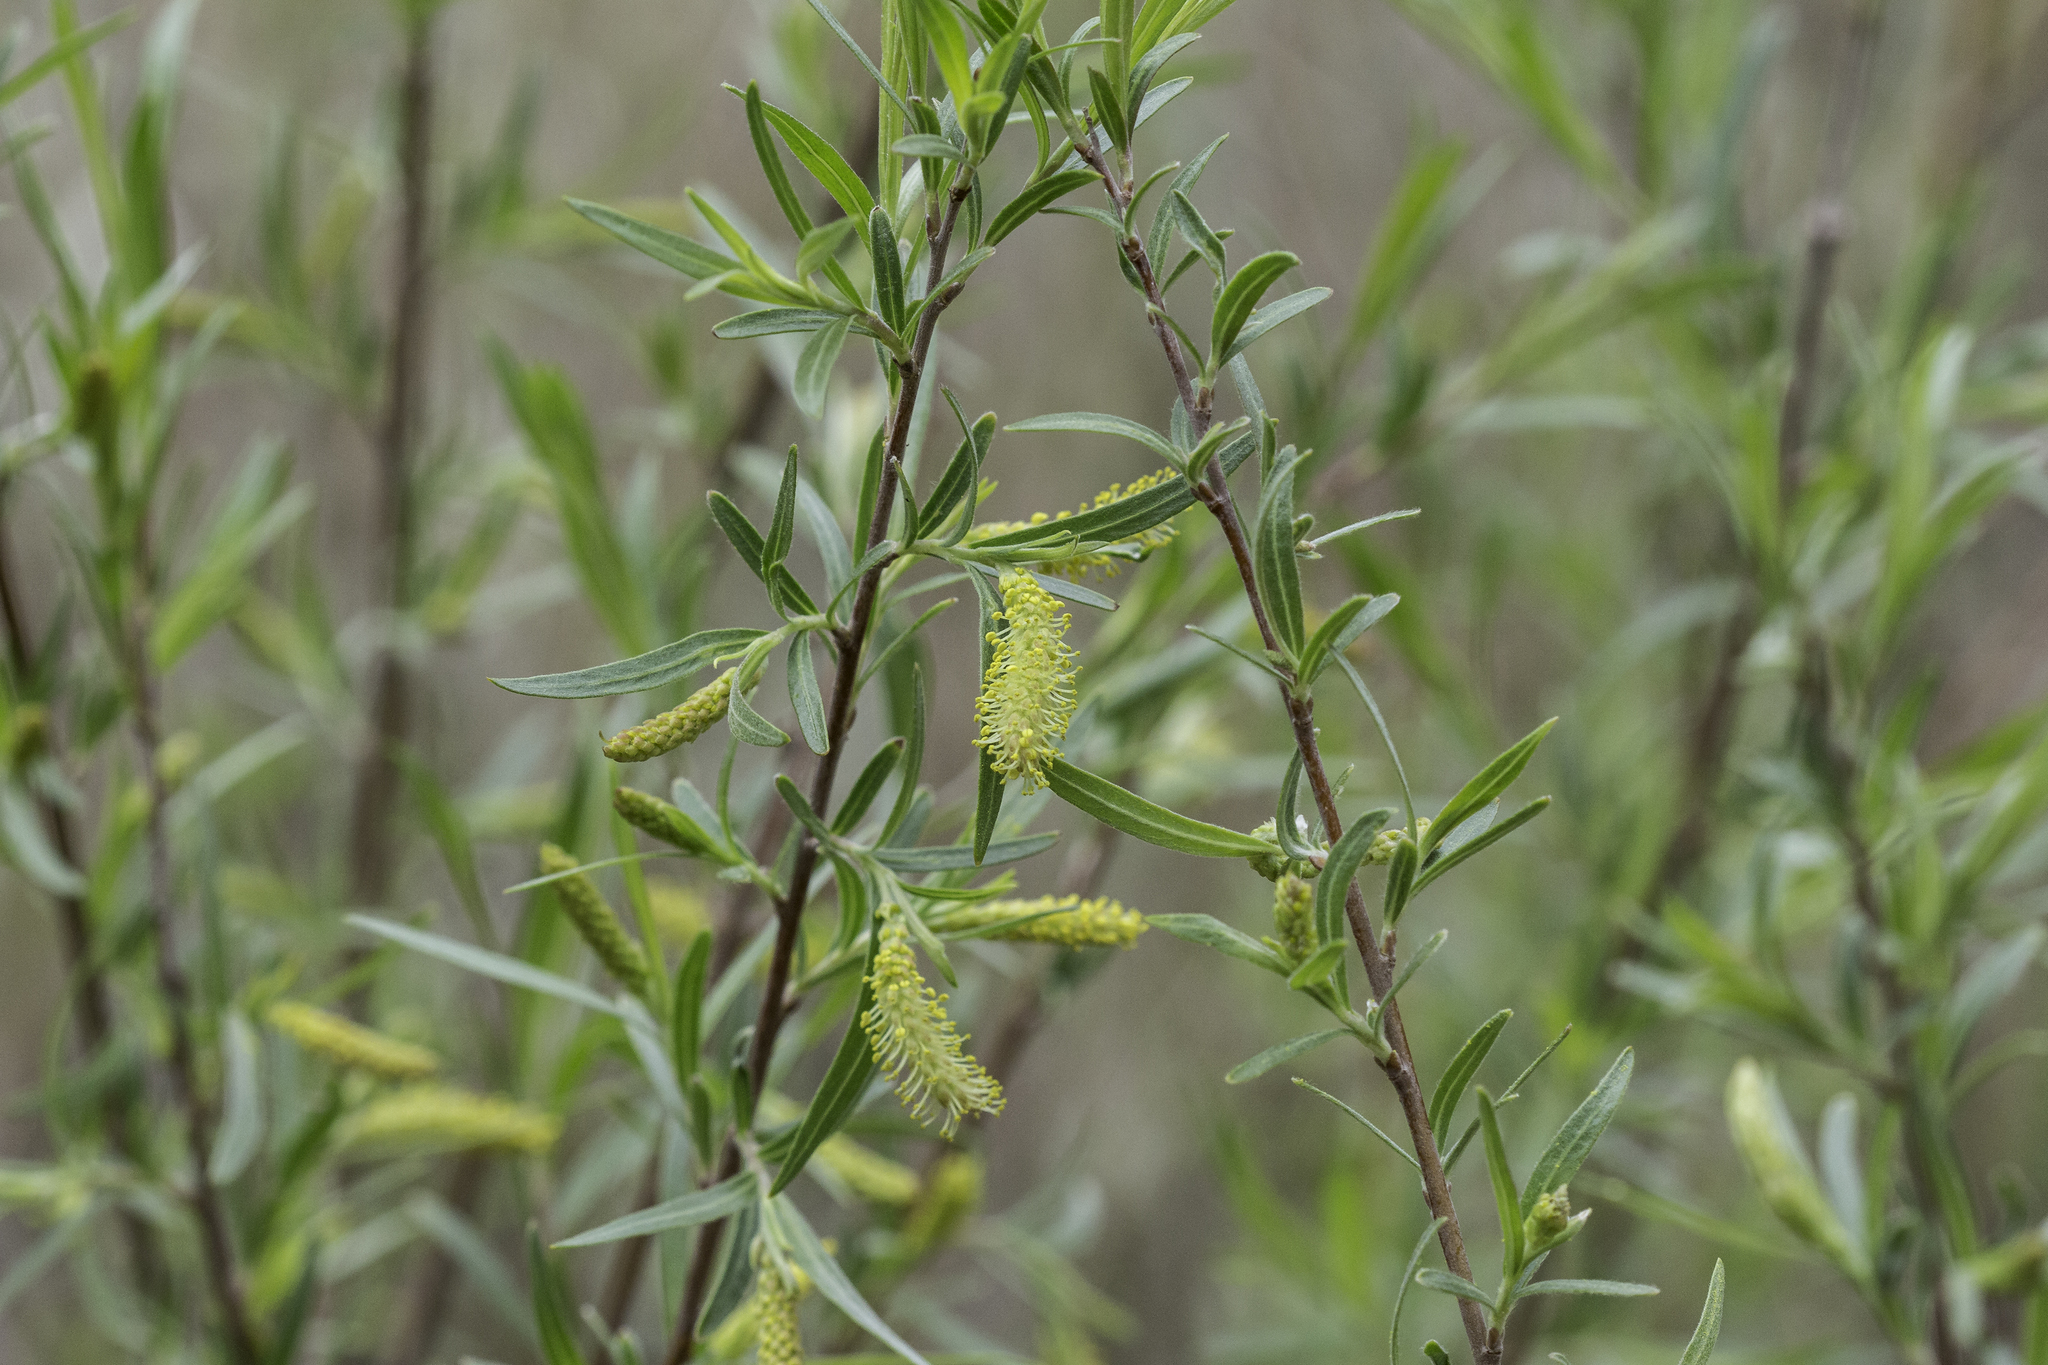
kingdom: Plantae
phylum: Tracheophyta
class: Magnoliopsida
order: Malpighiales
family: Salicaceae
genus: Salix
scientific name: Salix exigua
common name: Coyote willow
